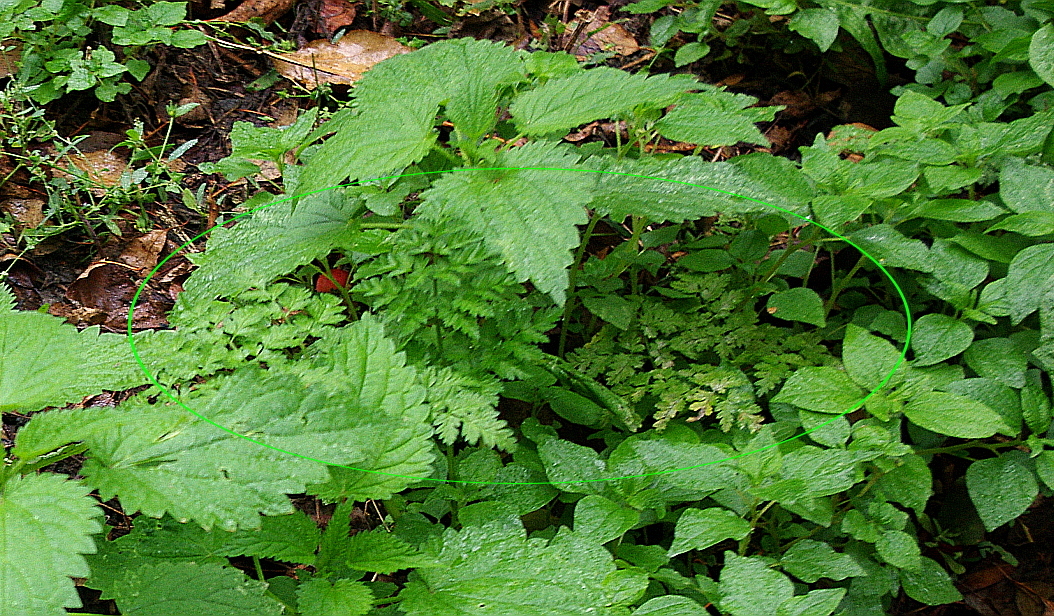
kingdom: Plantae
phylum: Tracheophyta
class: Magnoliopsida
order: Apiales
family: Apiaceae
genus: Anthriscus
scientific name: Anthriscus sylvestris
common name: Cow parsley
